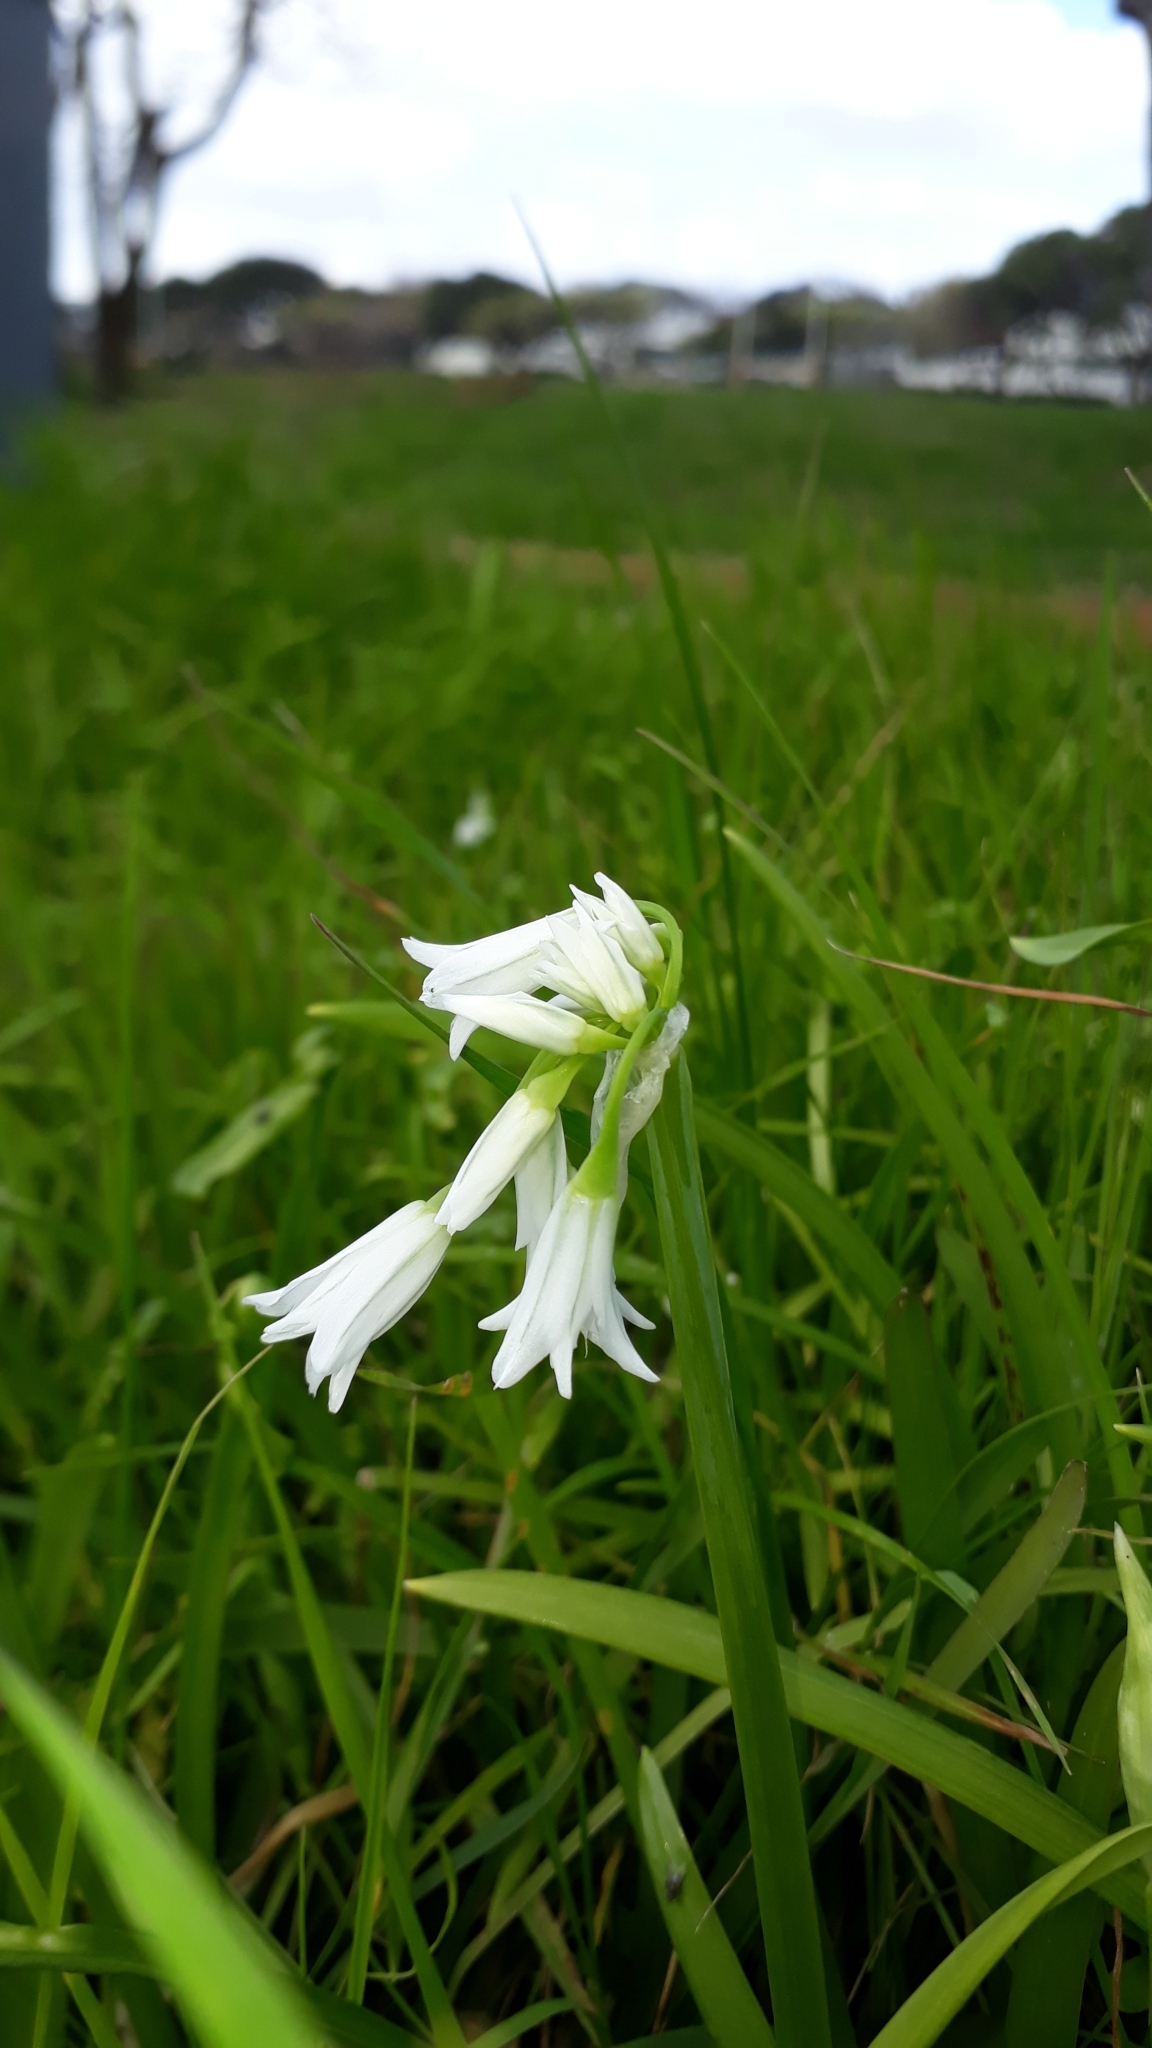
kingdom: Plantae
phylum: Tracheophyta
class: Liliopsida
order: Asparagales
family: Amaryllidaceae
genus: Allium
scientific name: Allium triquetrum
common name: Three-cornered garlic
